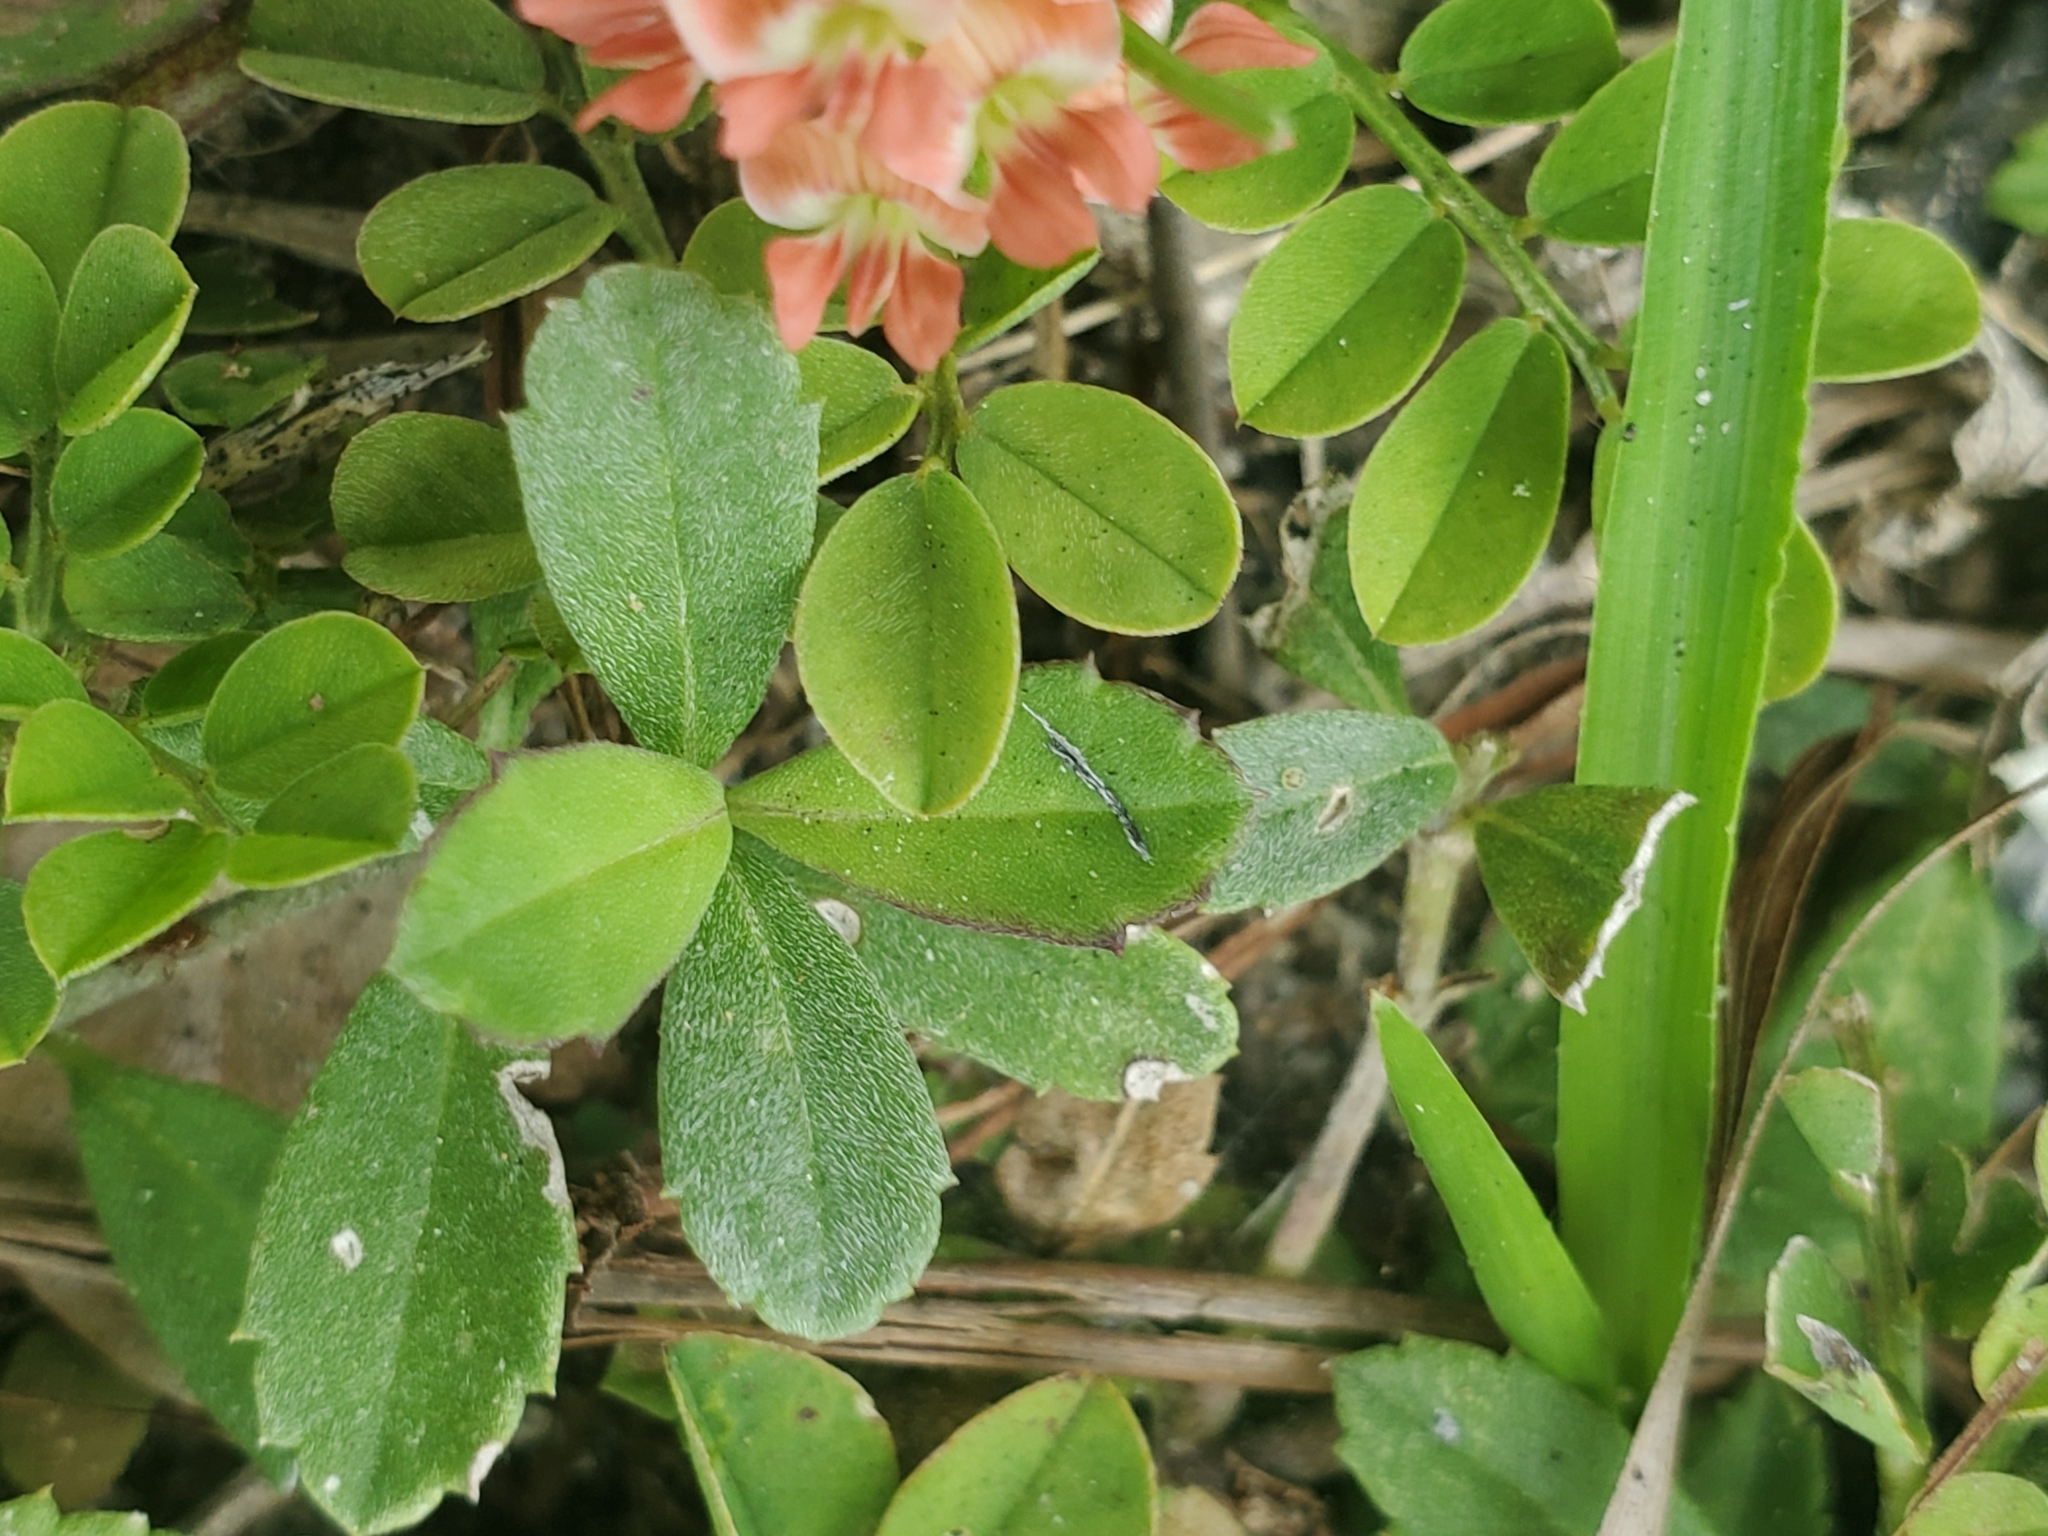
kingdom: Plantae
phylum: Tracheophyta
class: Magnoliopsida
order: Fabales
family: Fabaceae
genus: Indigofera
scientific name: Indigofera spicata
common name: Creeping indigo
